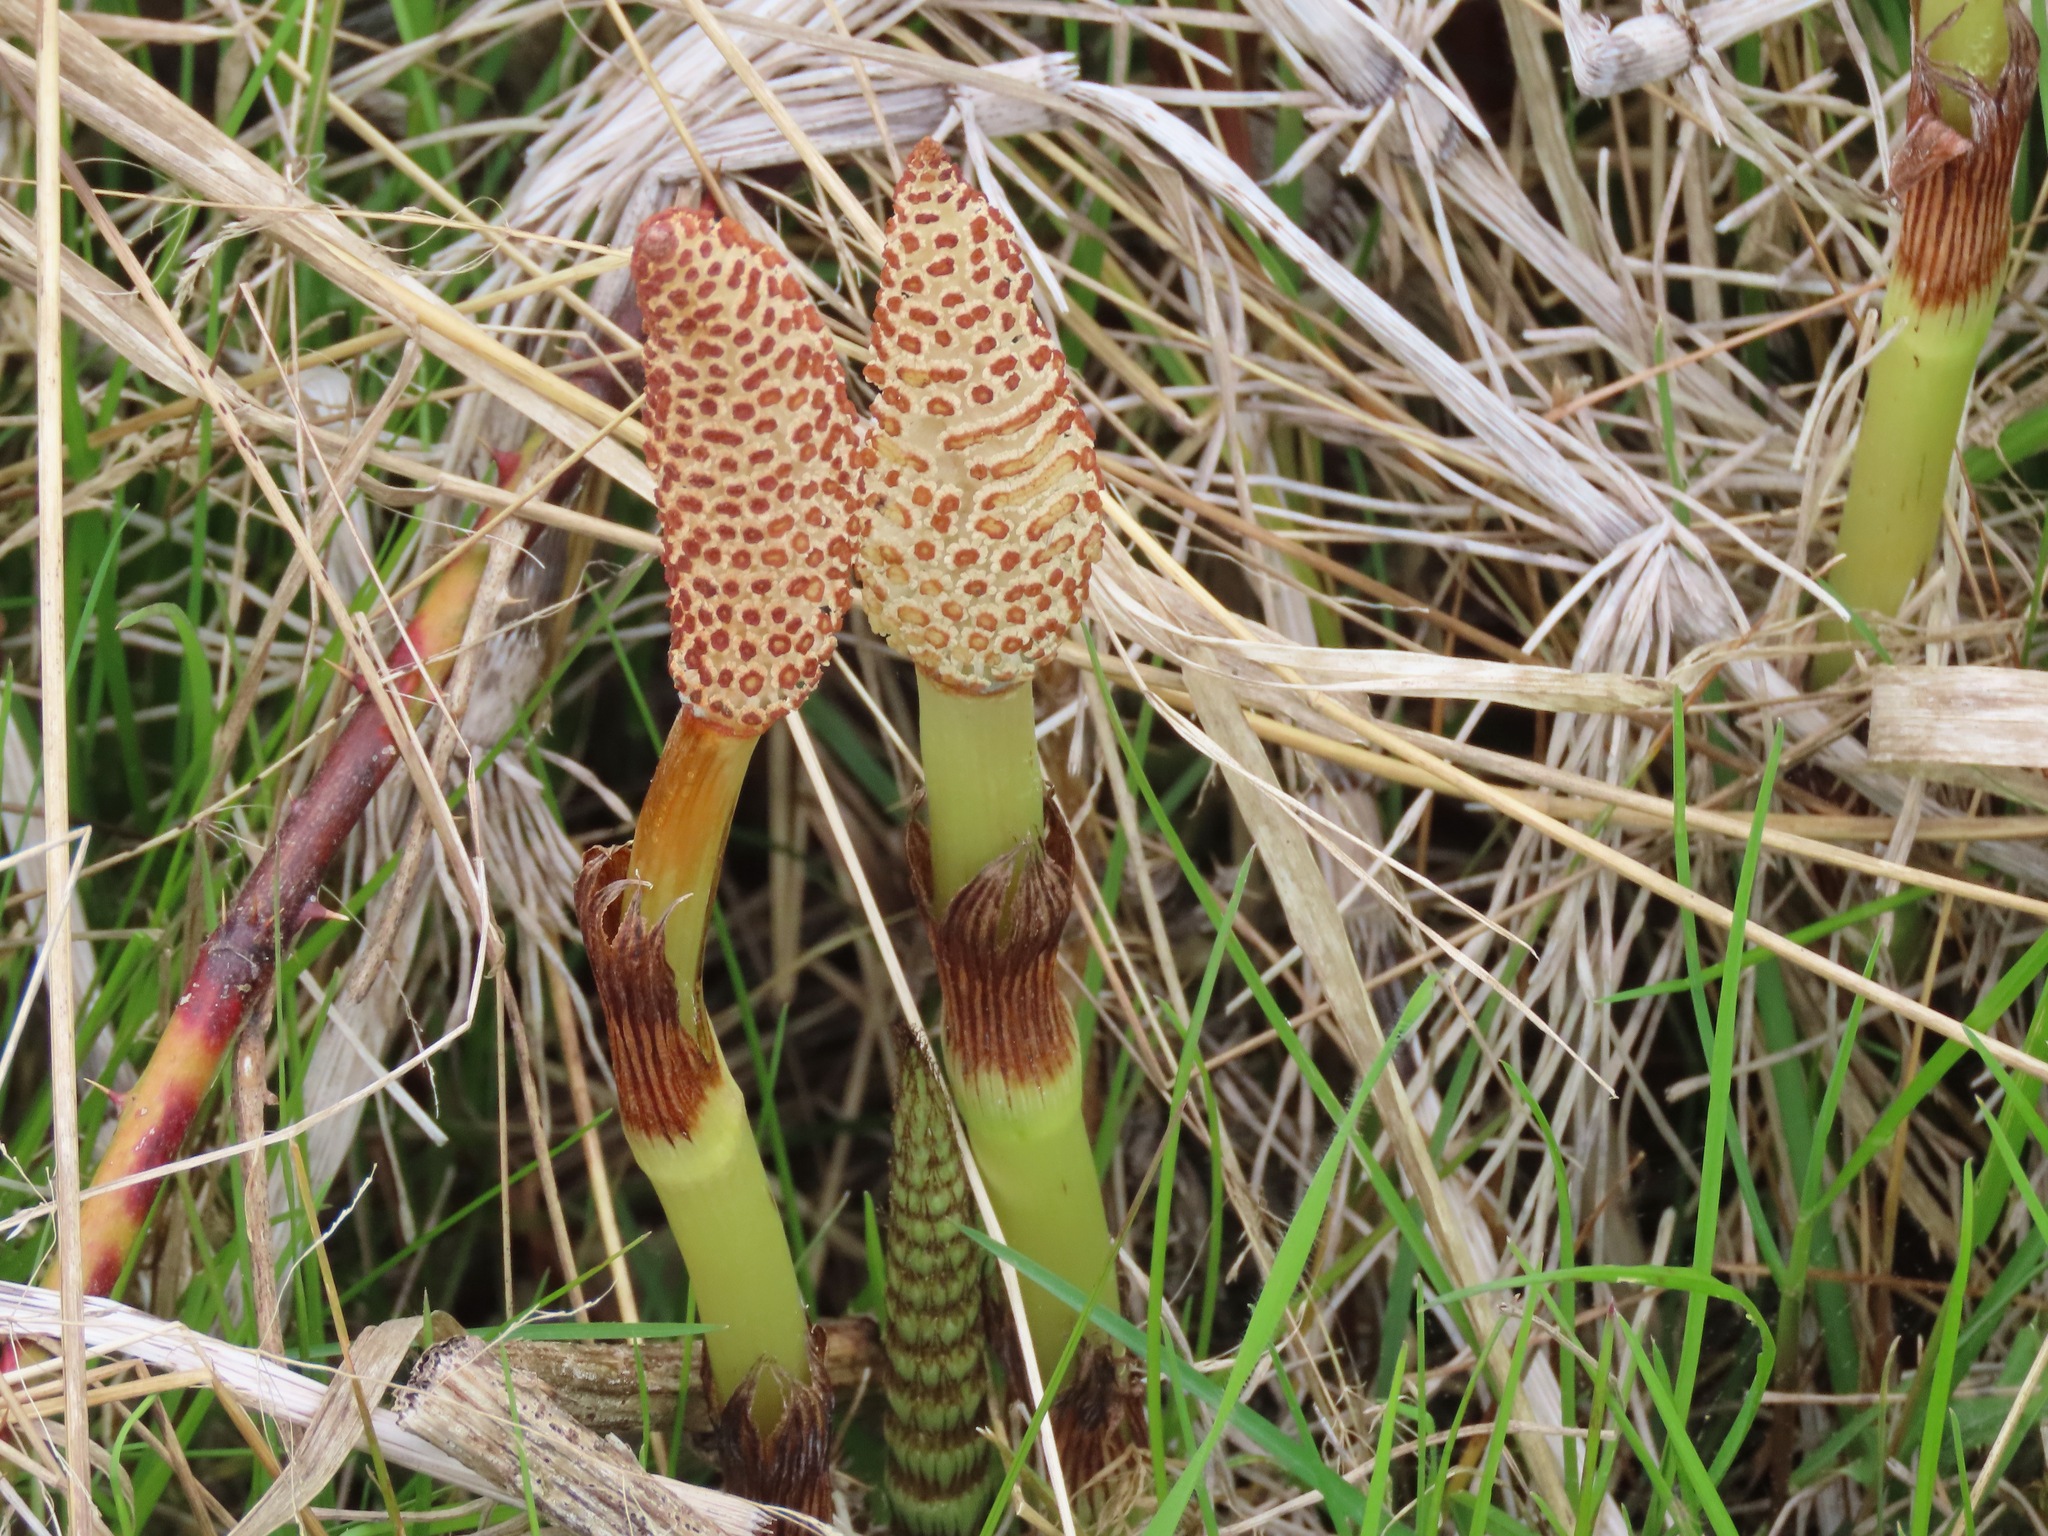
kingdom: Plantae
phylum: Tracheophyta
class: Polypodiopsida
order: Equisetales
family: Equisetaceae
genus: Equisetum
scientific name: Equisetum braunii
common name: Braun's horsetail
